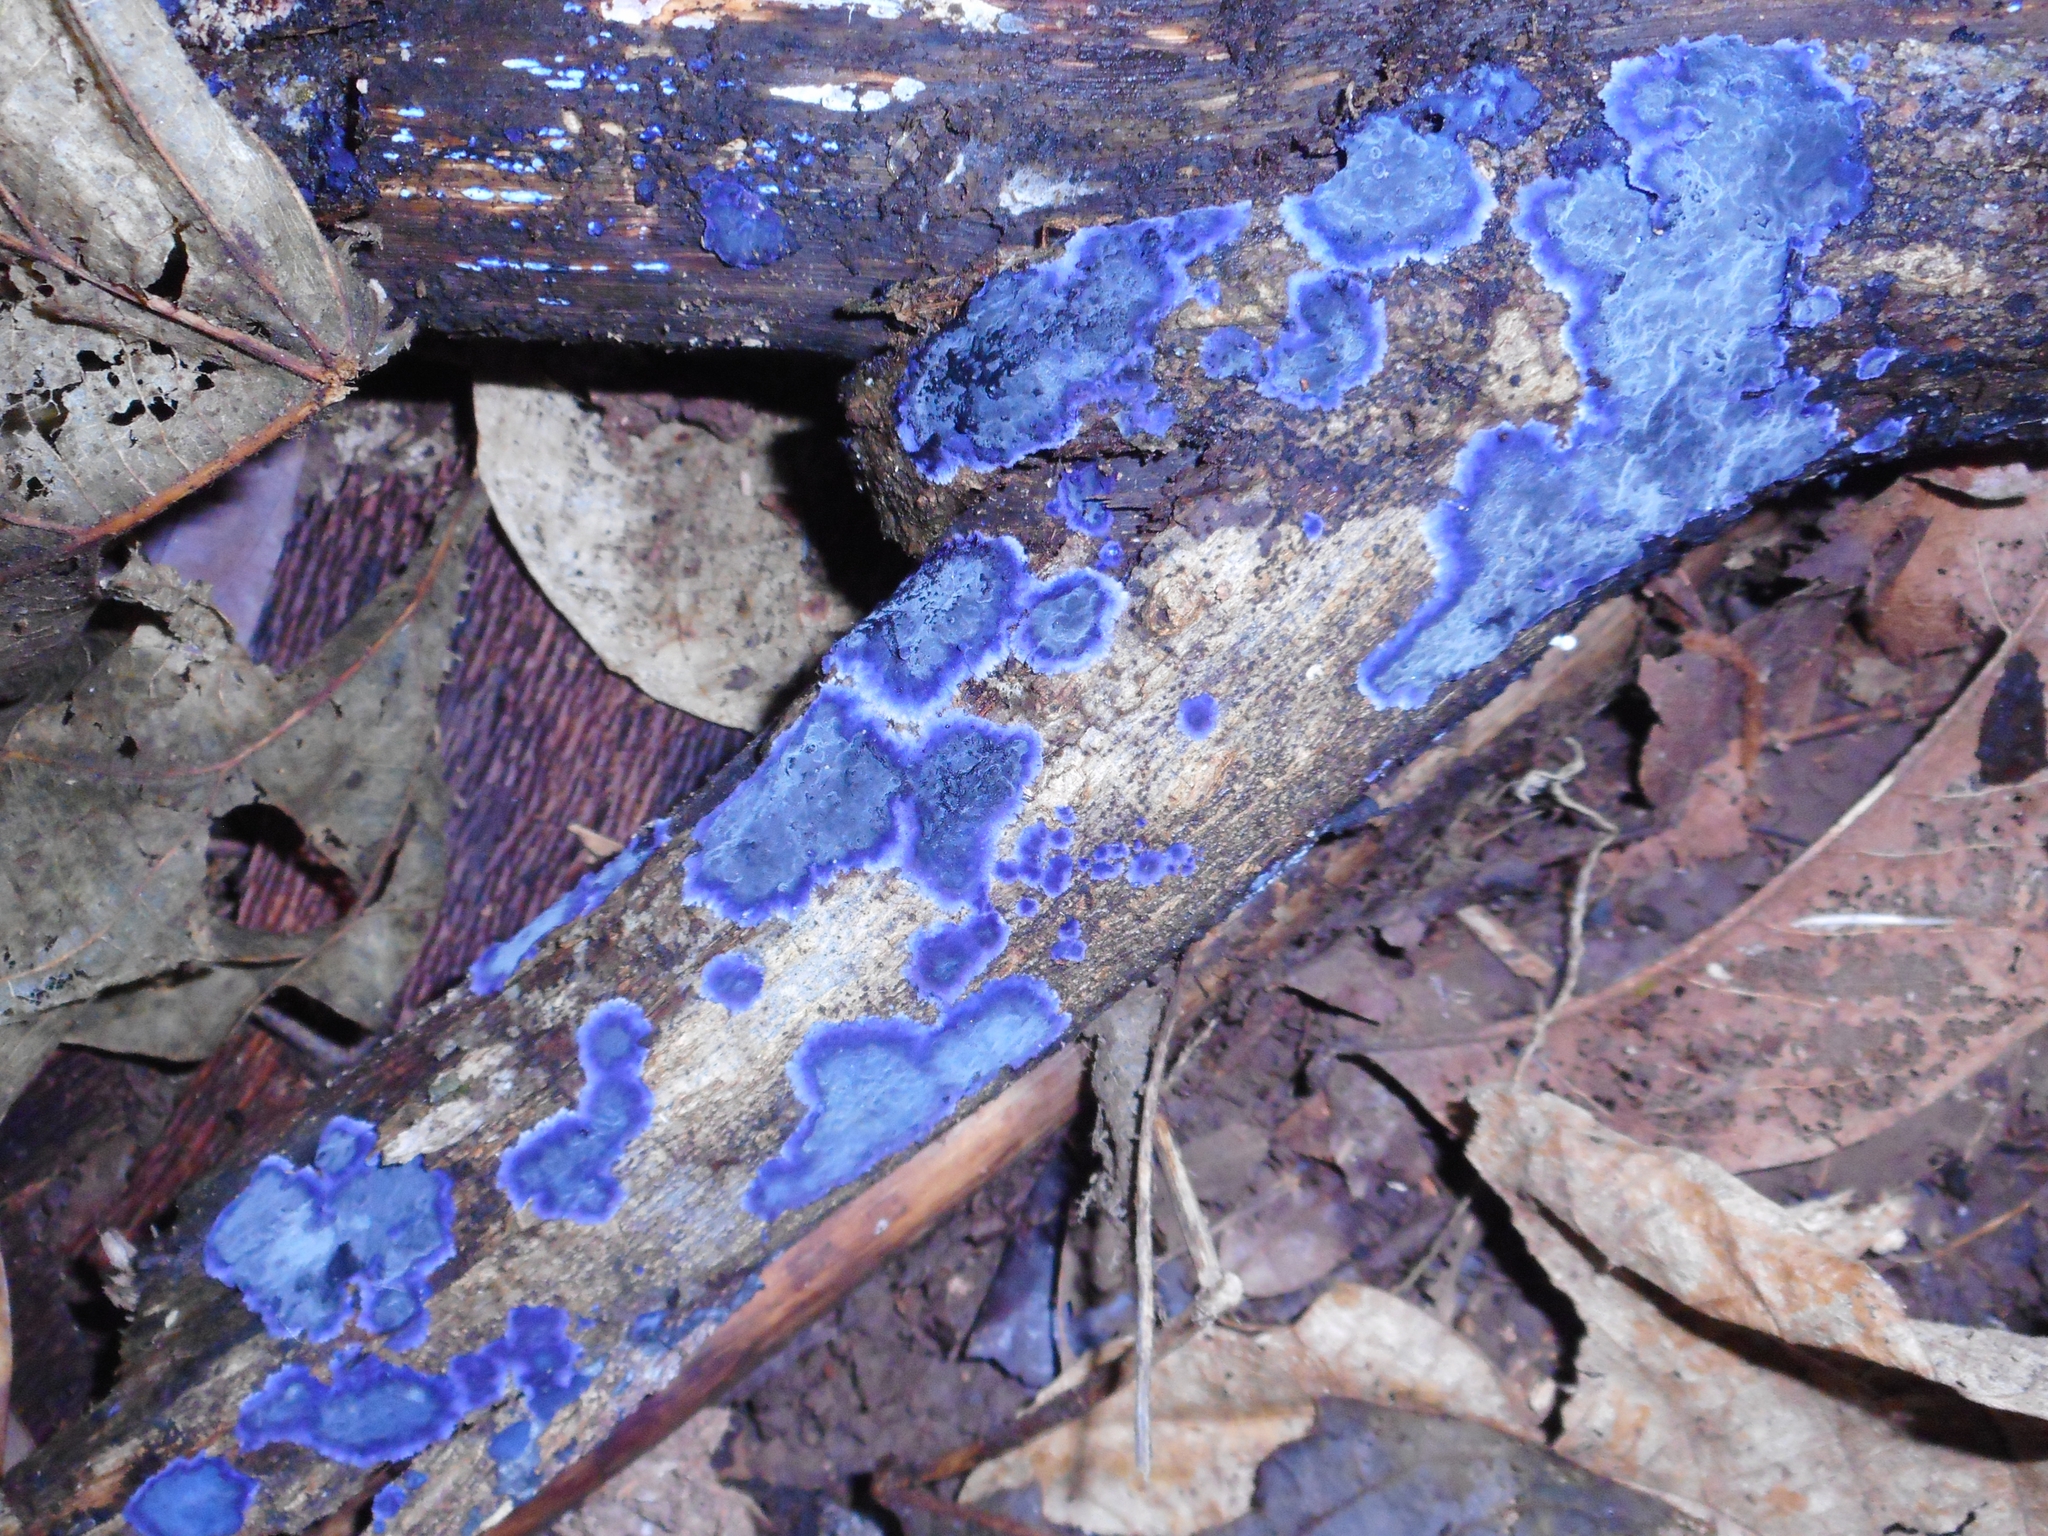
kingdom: Fungi
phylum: Basidiomycota
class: Agaricomycetes
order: Polyporales
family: Phanerochaetaceae
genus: Terana
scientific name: Terana coerulea
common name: Cobalt crust
